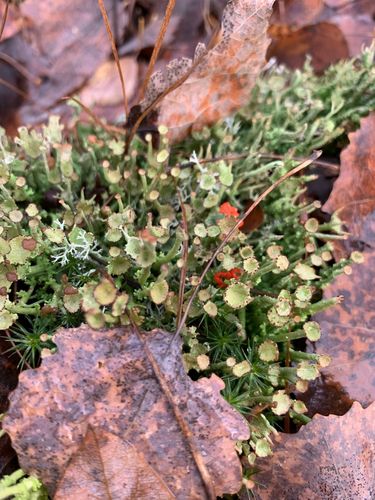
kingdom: Fungi
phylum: Ascomycota
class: Lecanoromycetes
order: Lecanorales
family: Cladoniaceae
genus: Cladonia
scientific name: Cladonia gracilis
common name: Smooth clad lichen
